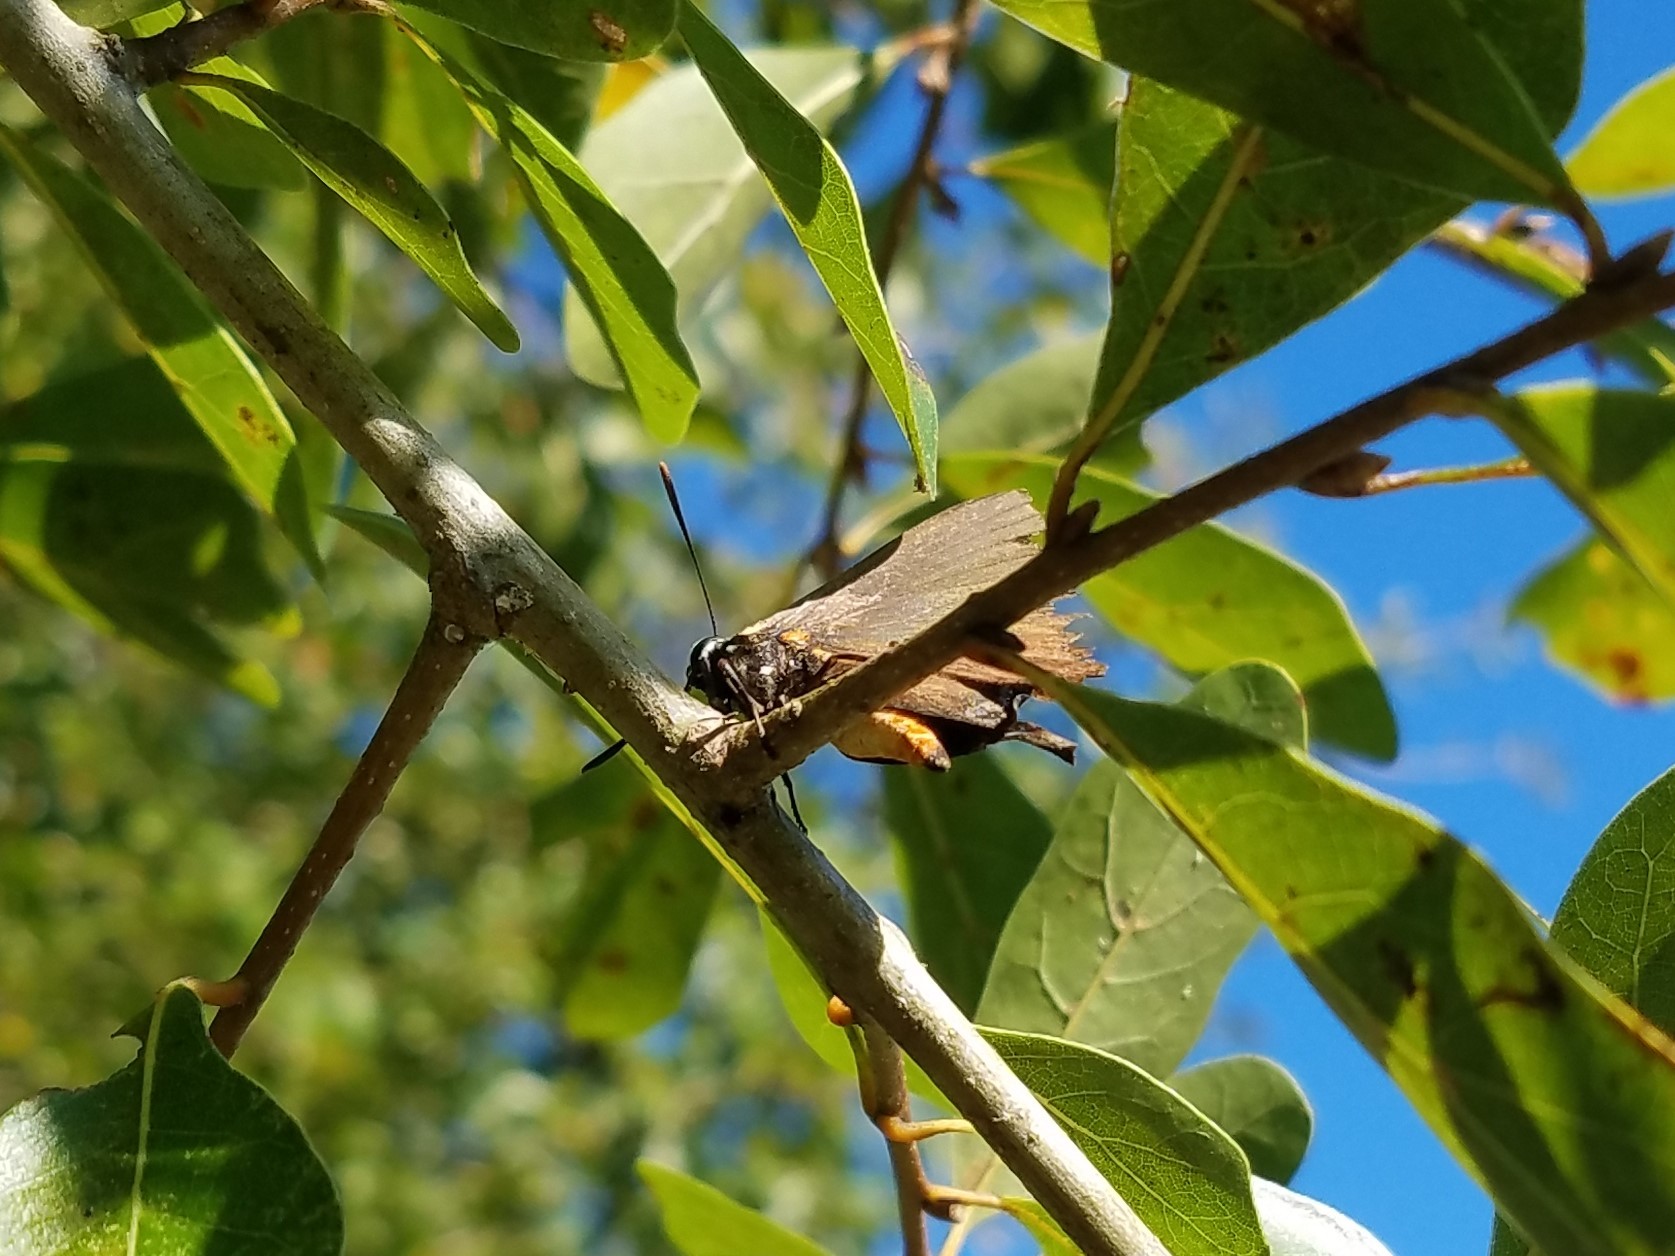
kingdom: Animalia
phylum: Arthropoda
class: Insecta
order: Lepidoptera
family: Lycaenidae
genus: Atlides
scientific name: Atlides halesus
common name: Great purple hairstreak
